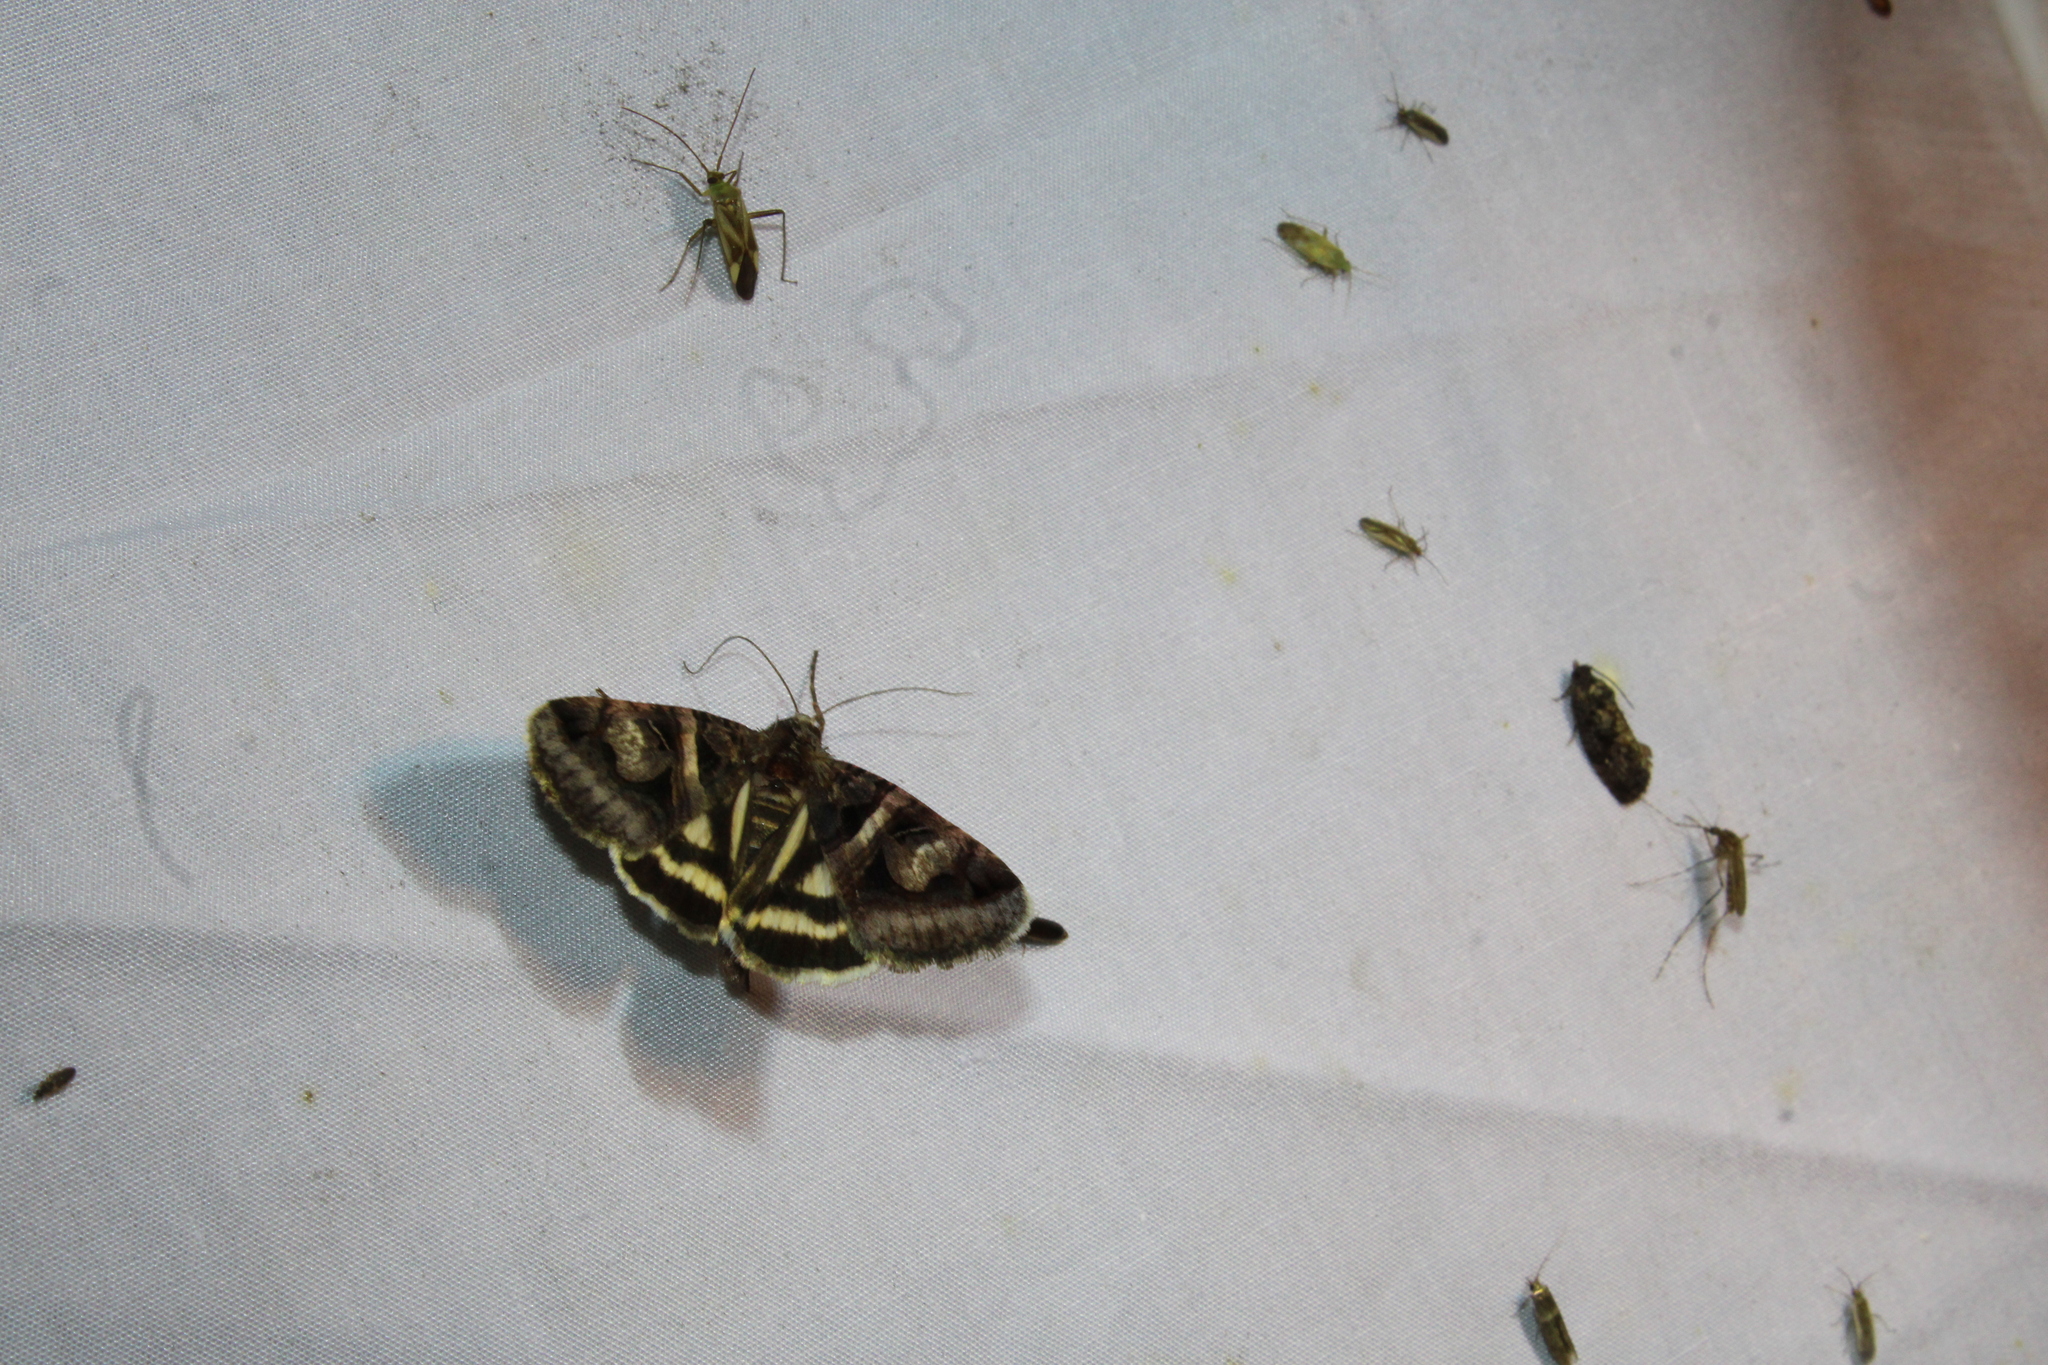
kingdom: Animalia
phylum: Arthropoda
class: Insecta
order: Lepidoptera
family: Erebidae
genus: Drasteria
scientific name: Drasteria grandirena
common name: Figure-seven moth
